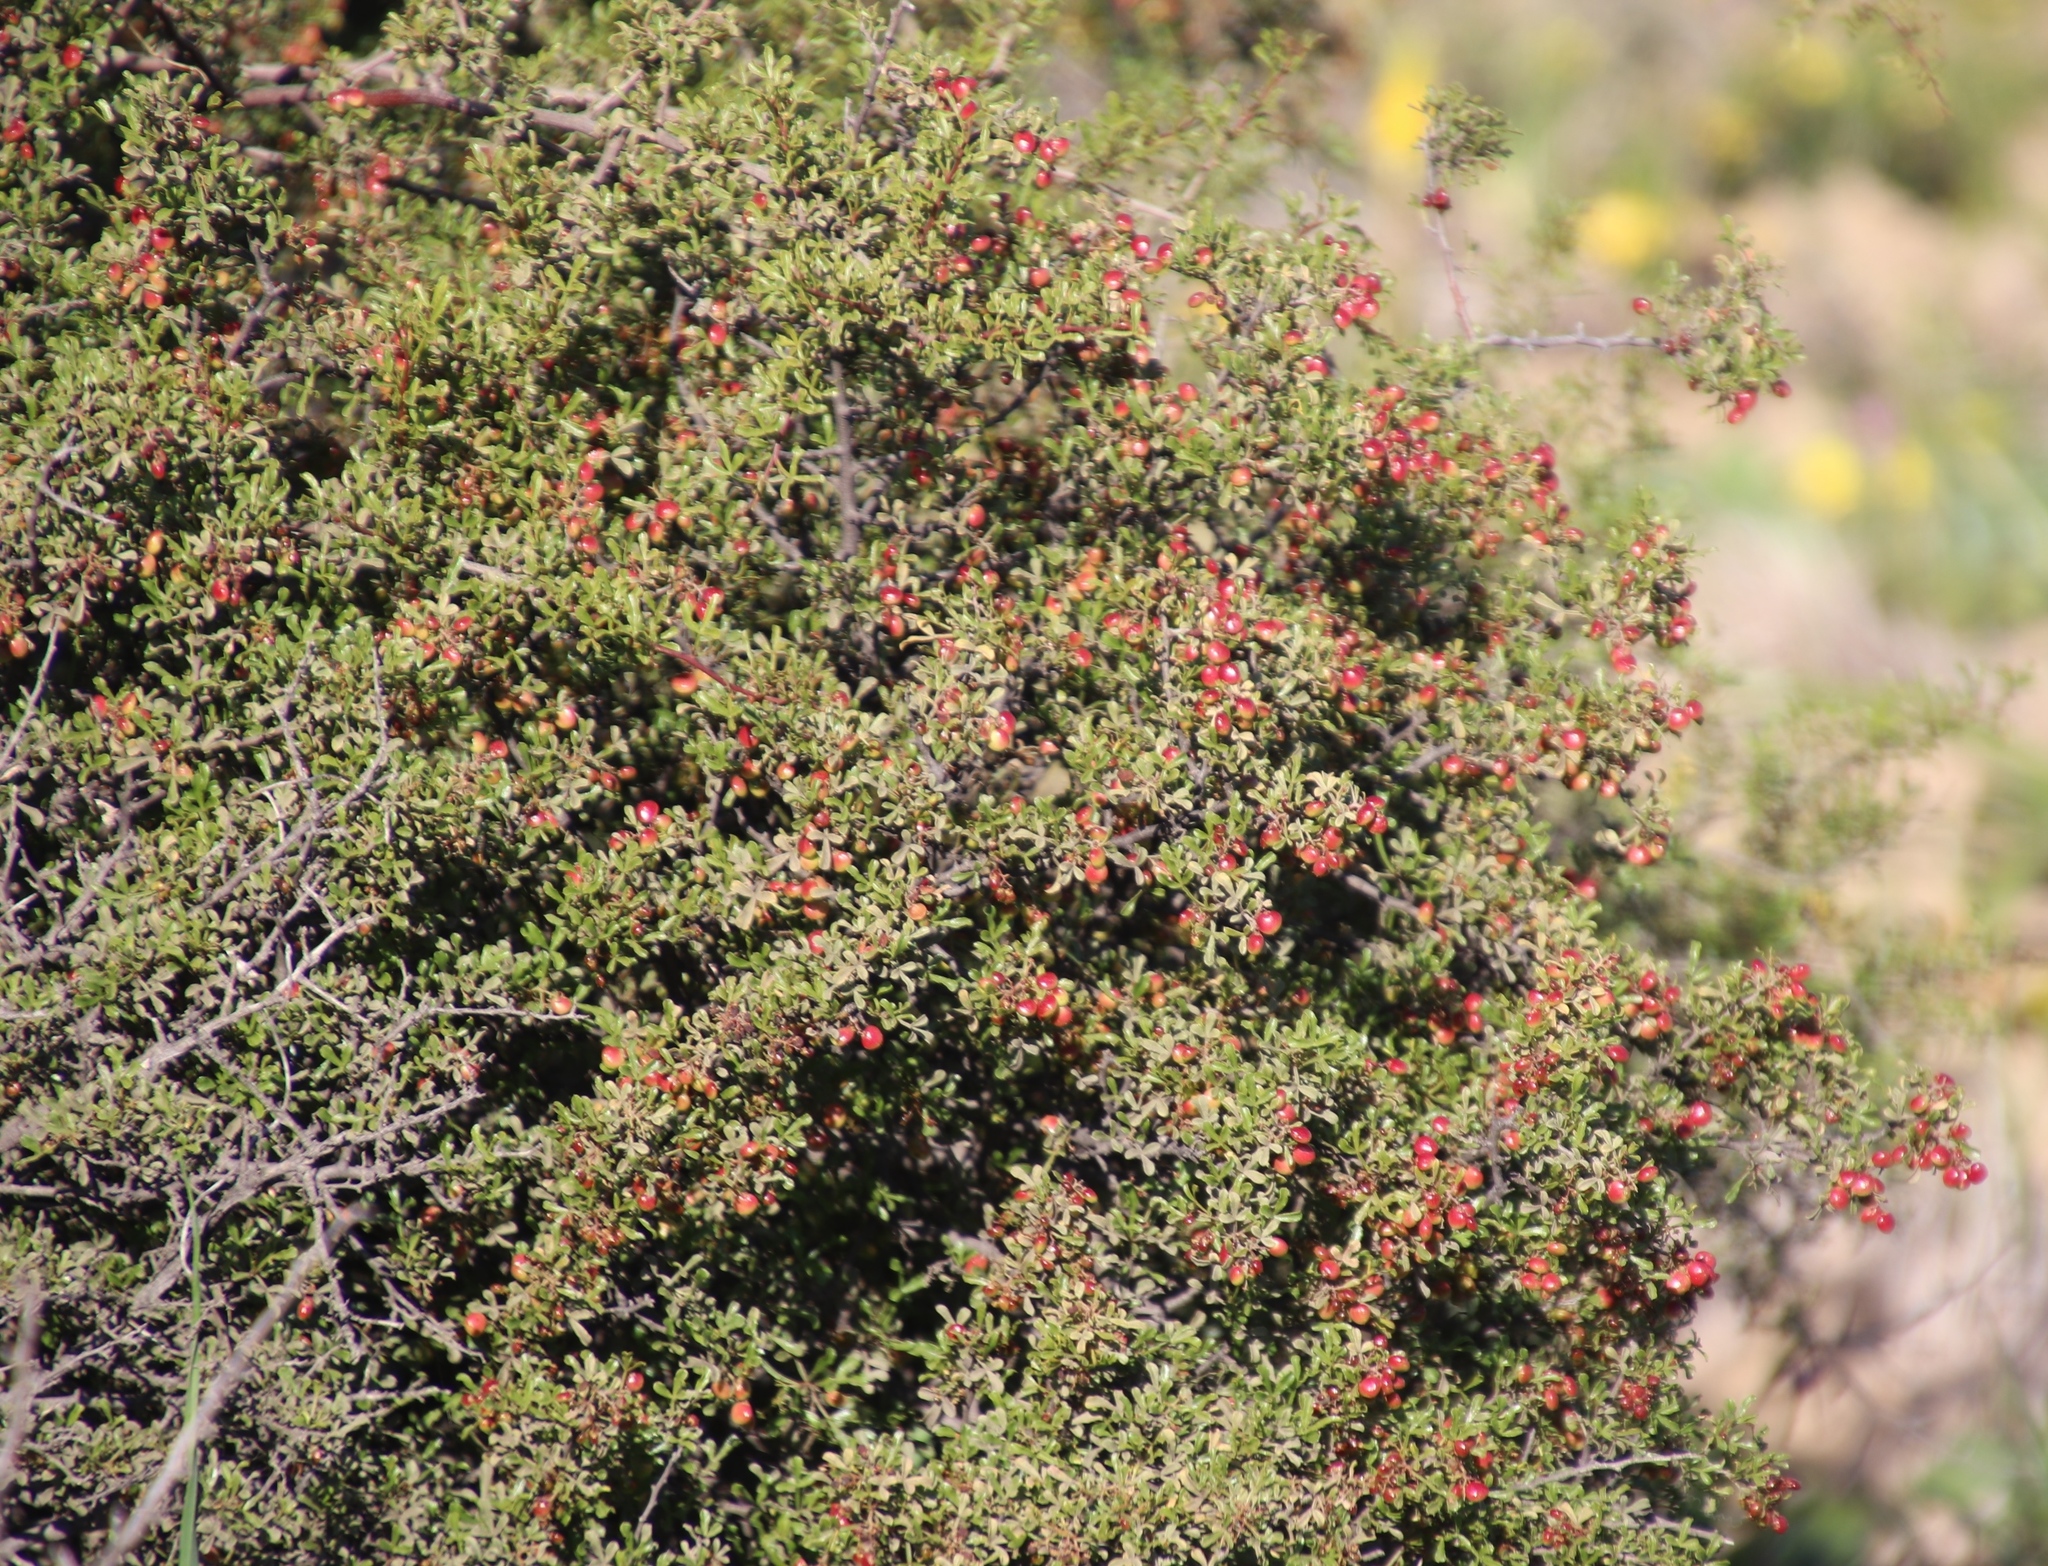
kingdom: Plantae
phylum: Tracheophyta
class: Magnoliopsida
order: Sapindales
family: Anacardiaceae
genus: Searsia
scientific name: Searsia undulata
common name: Namaqua kunibush
